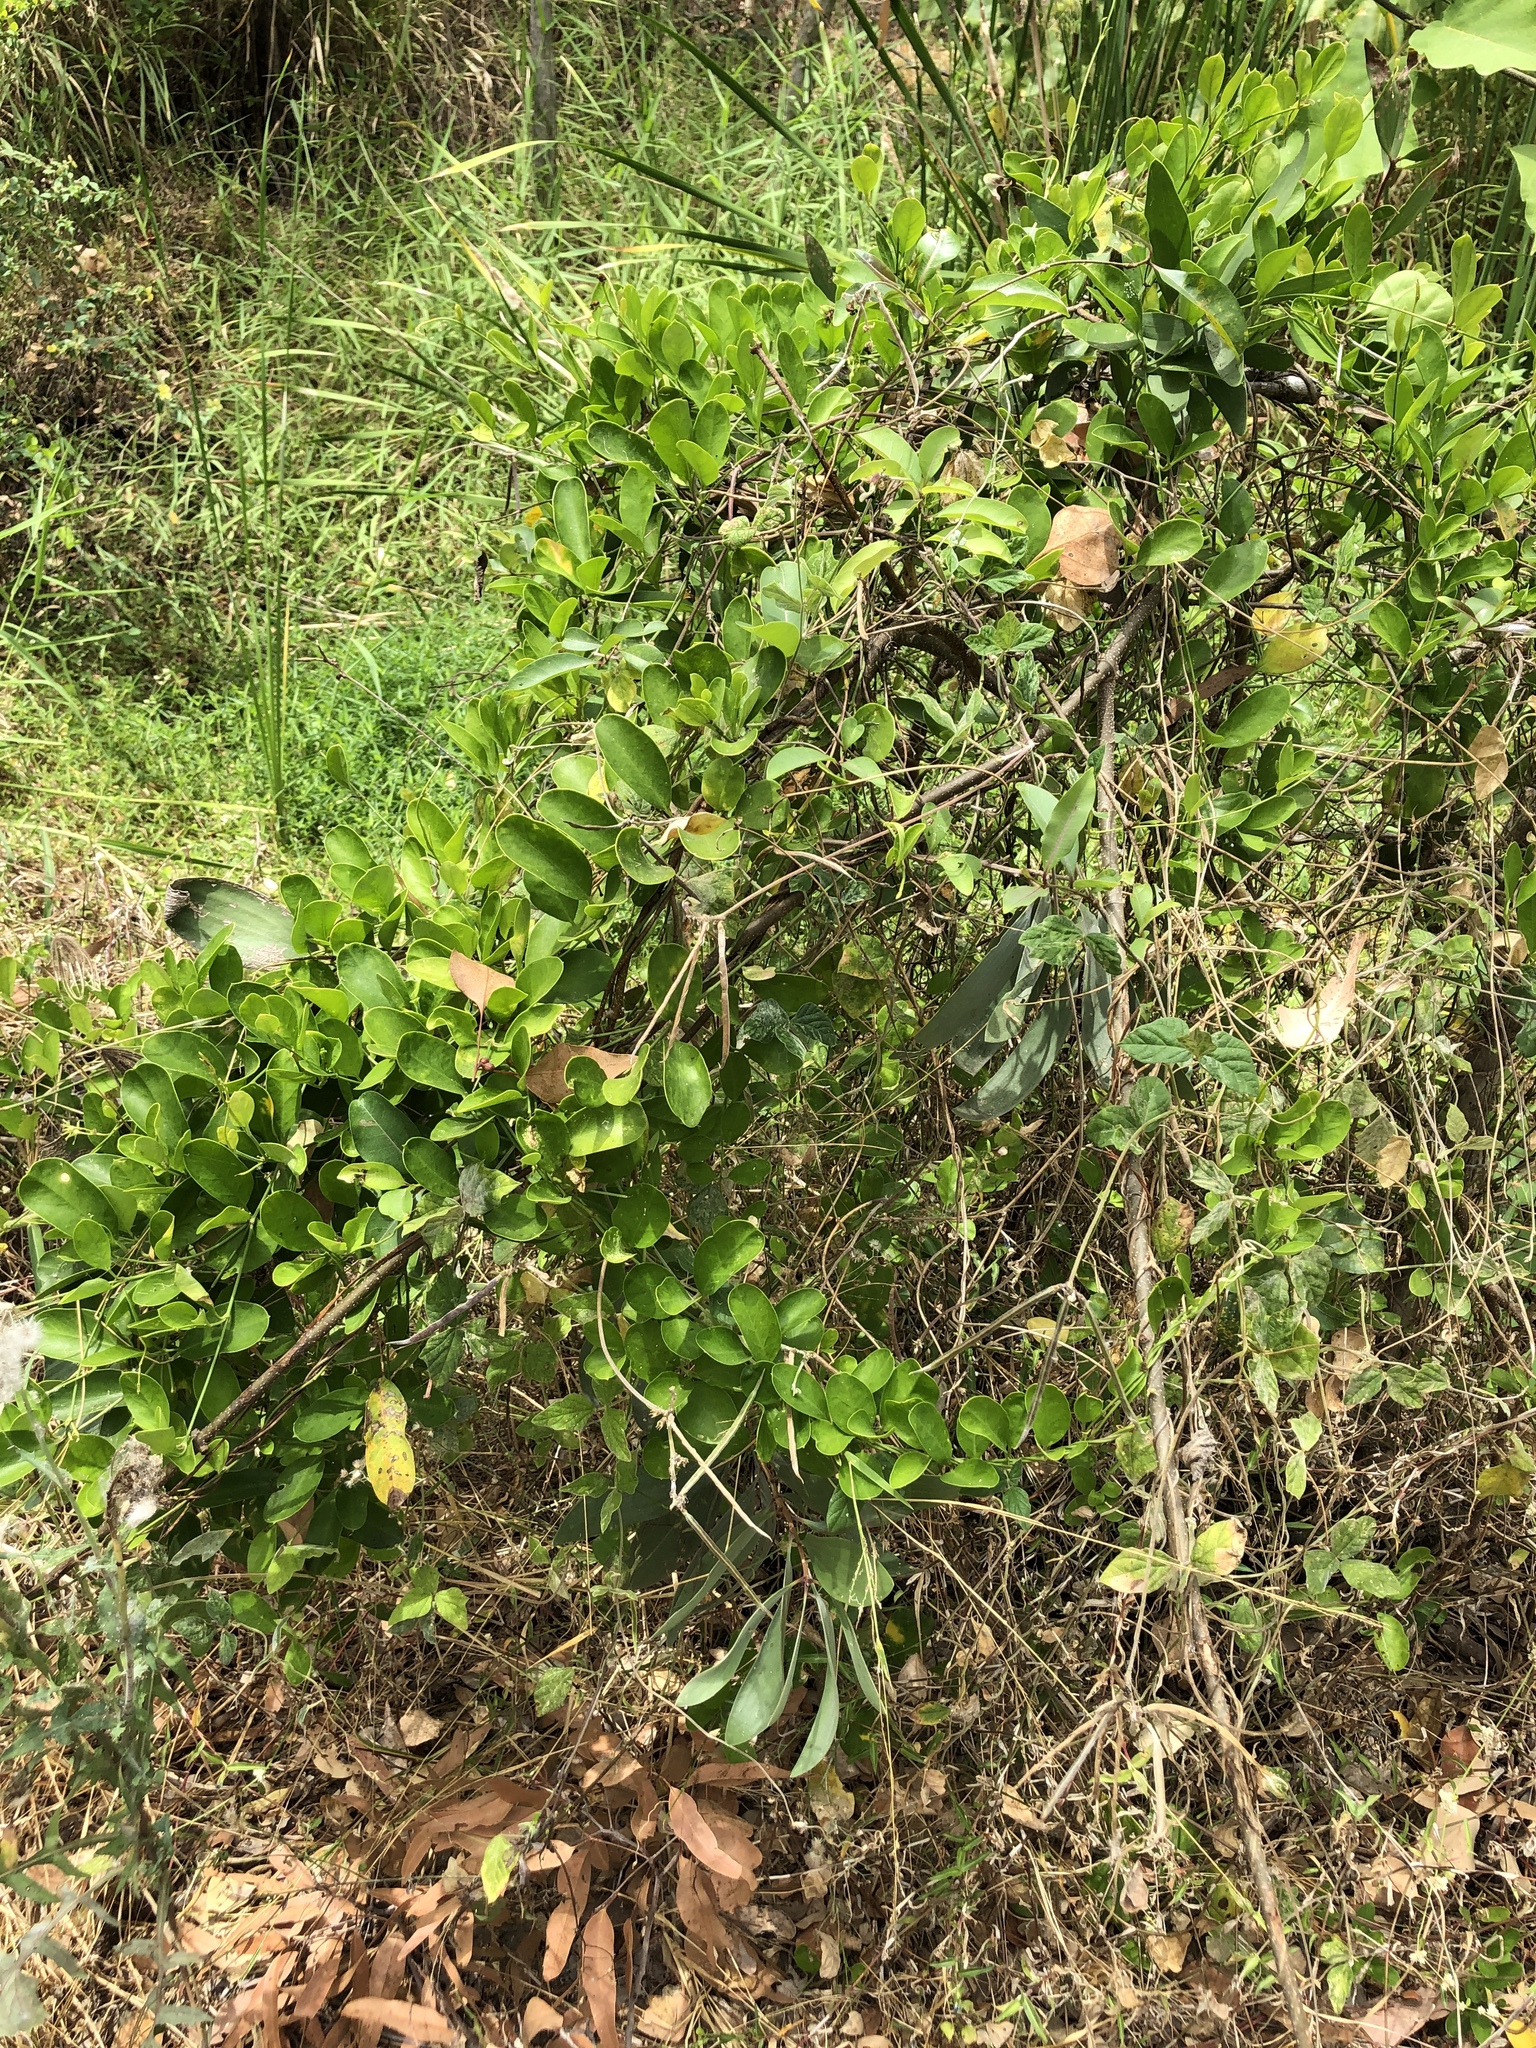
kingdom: Plantae
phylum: Tracheophyta
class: Magnoliopsida
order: Gentianales
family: Apocynaceae
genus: Vincetoxicum
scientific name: Vincetoxicum carnosum
